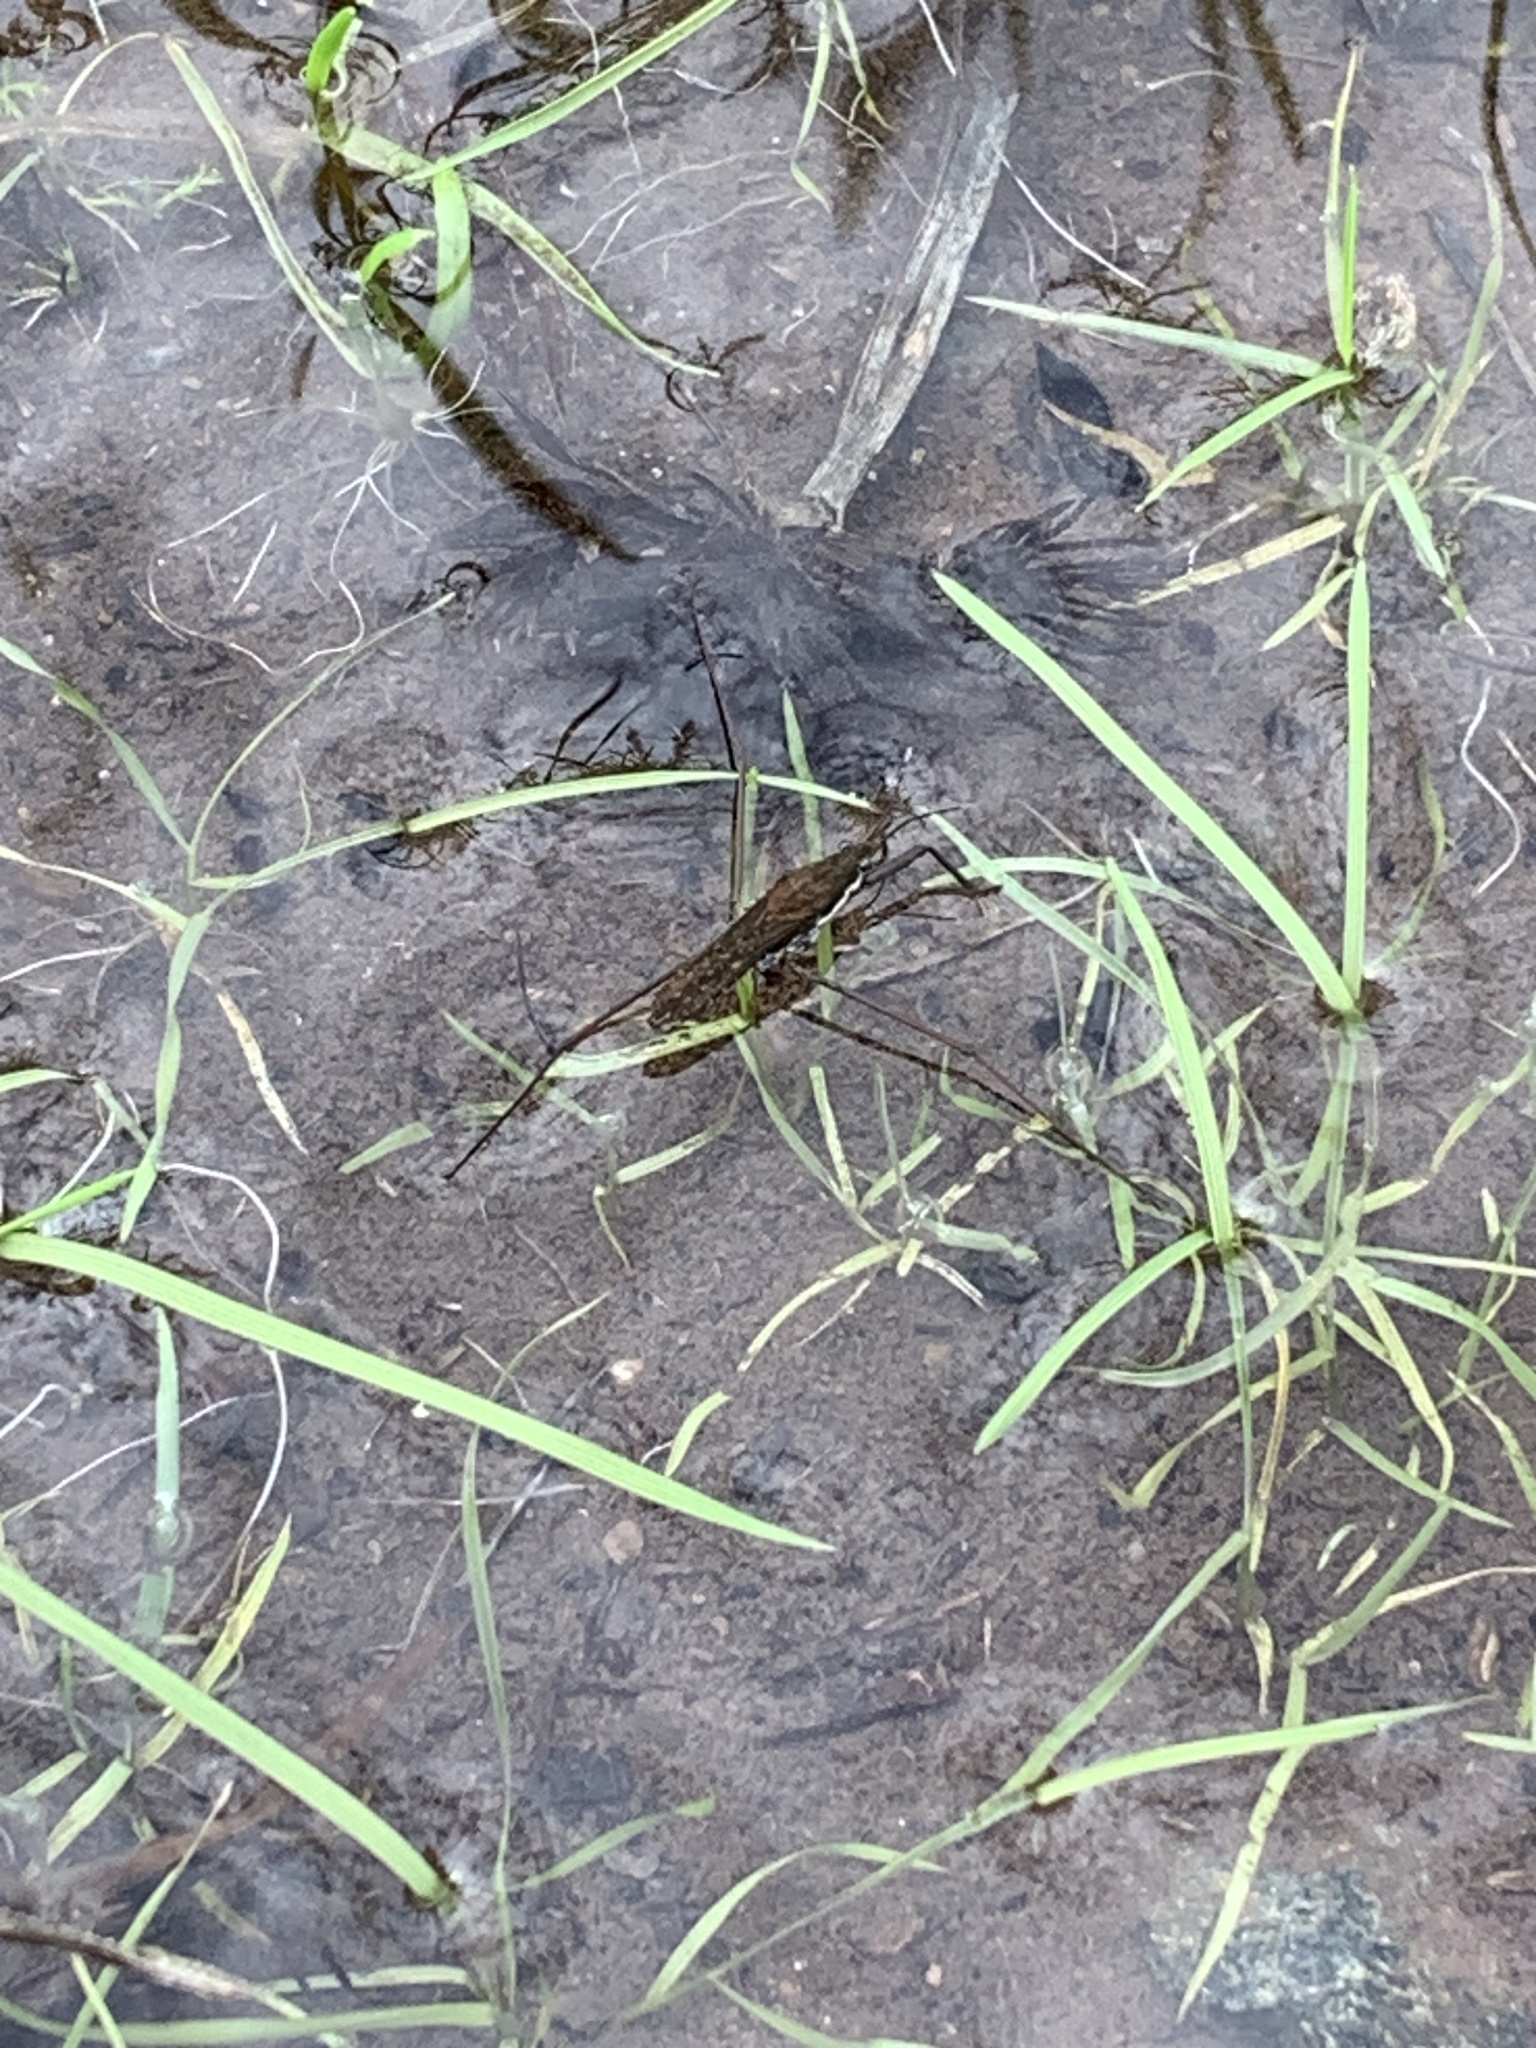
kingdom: Animalia
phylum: Arthropoda
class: Insecta
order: Hemiptera
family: Gerridae
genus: Aquarius
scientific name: Aquarius remigis
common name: Common water strider
